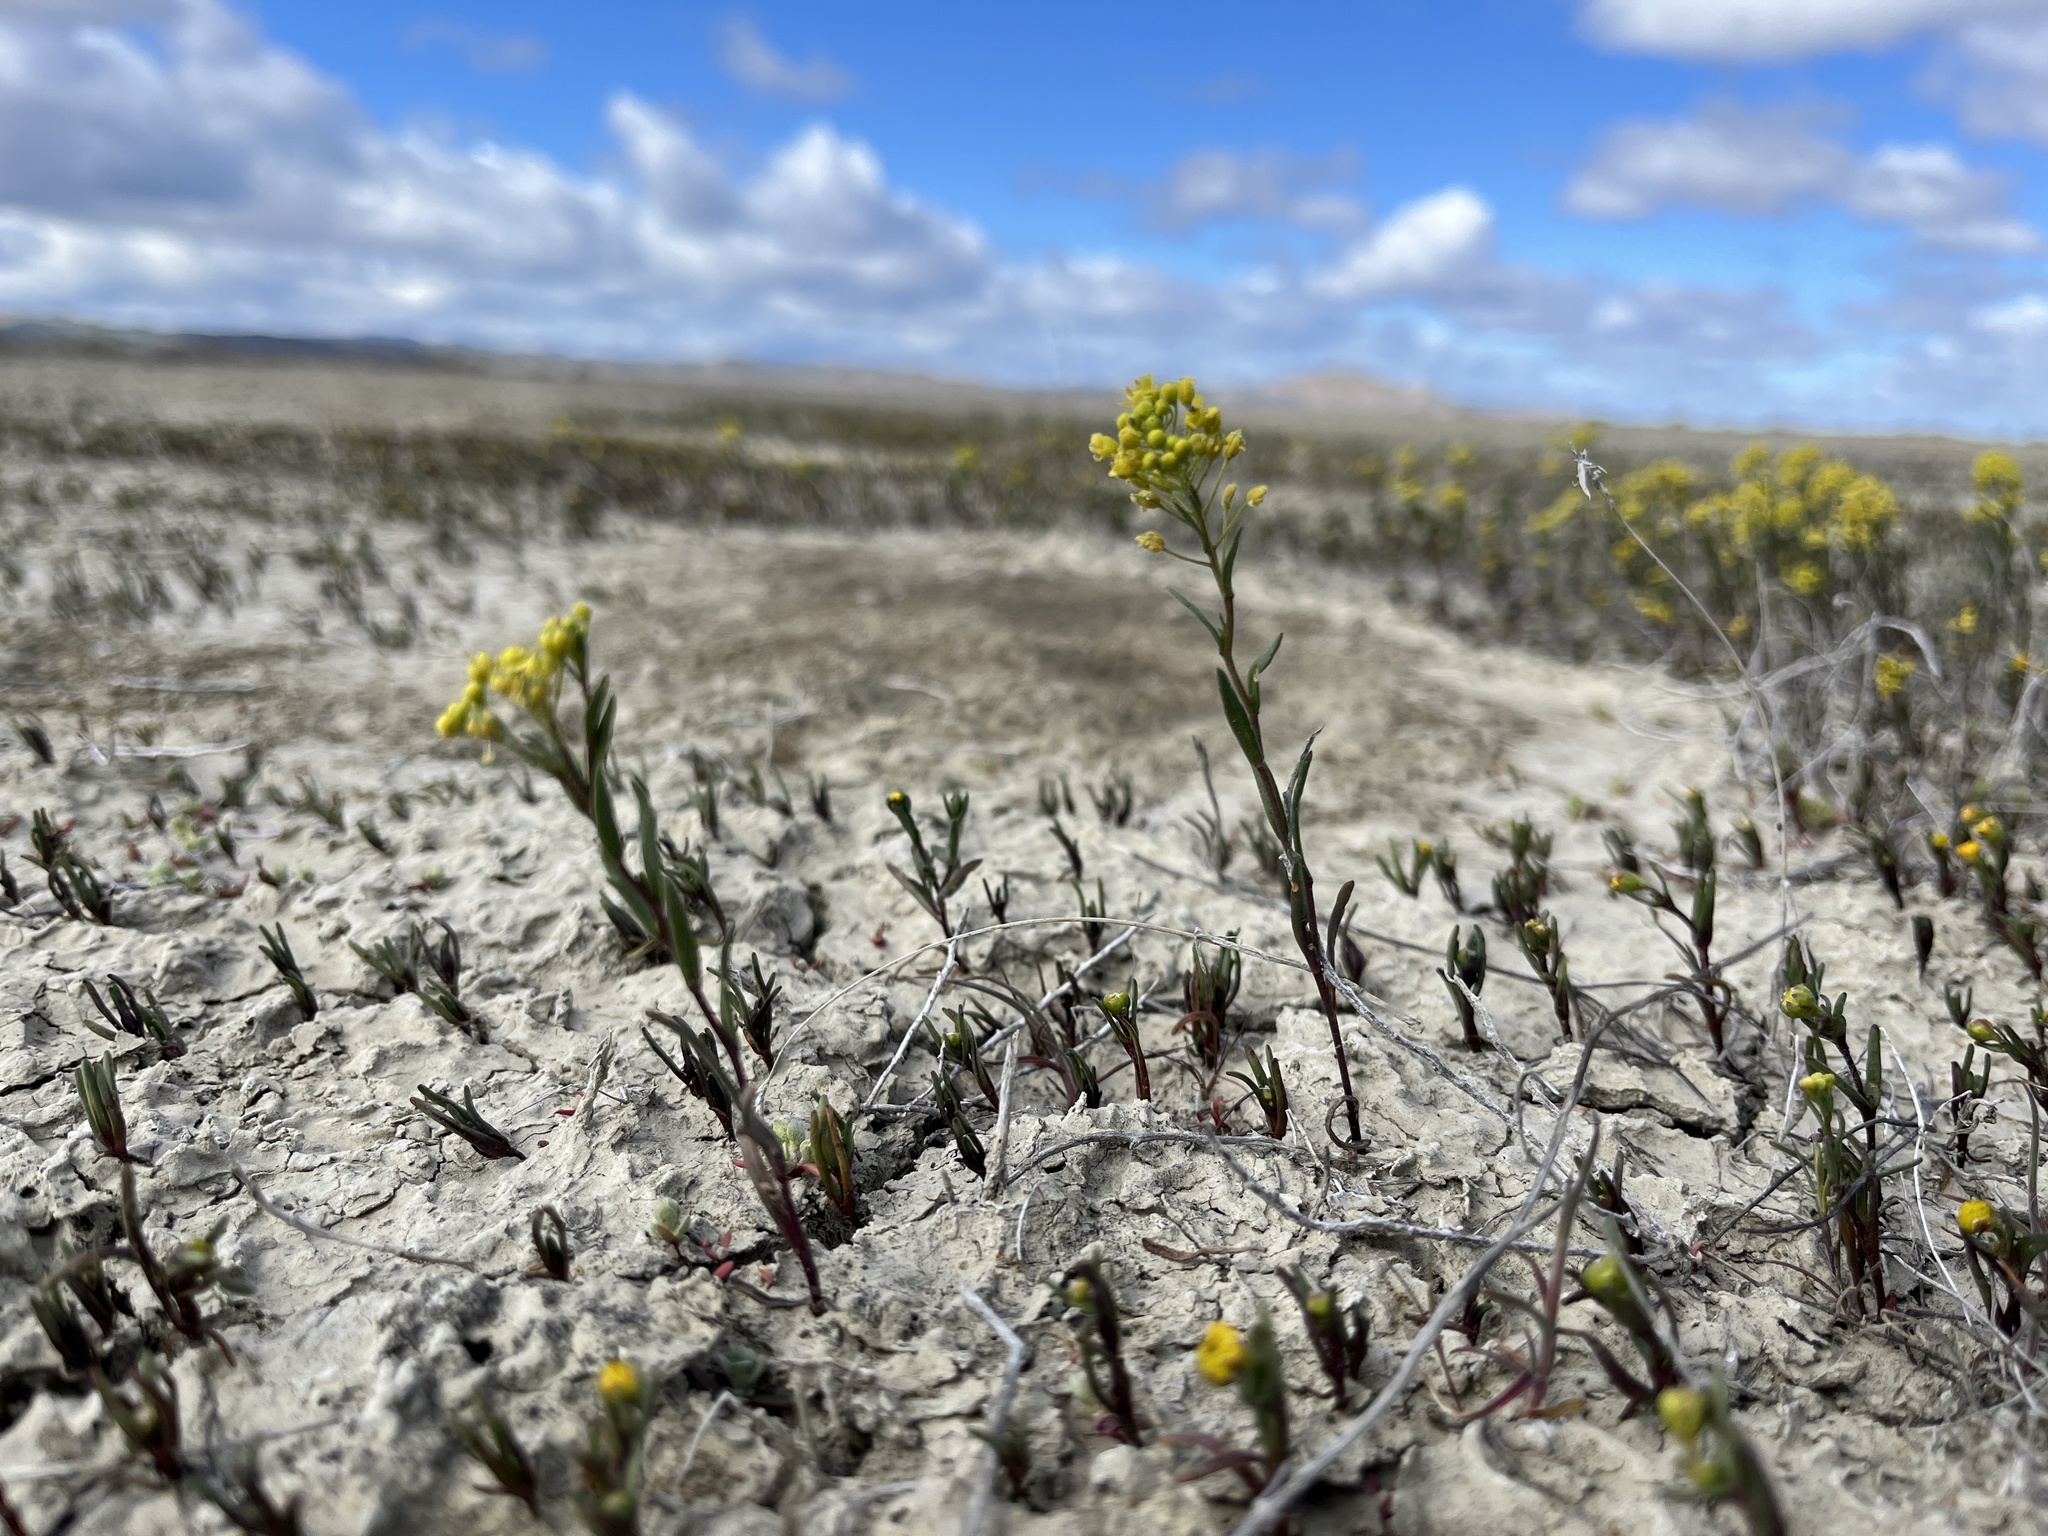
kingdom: Plantae
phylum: Tracheophyta
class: Magnoliopsida
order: Brassicales
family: Brassicaceae
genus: Lepidium
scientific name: Lepidium jaredii
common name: Jared's peppergrass
